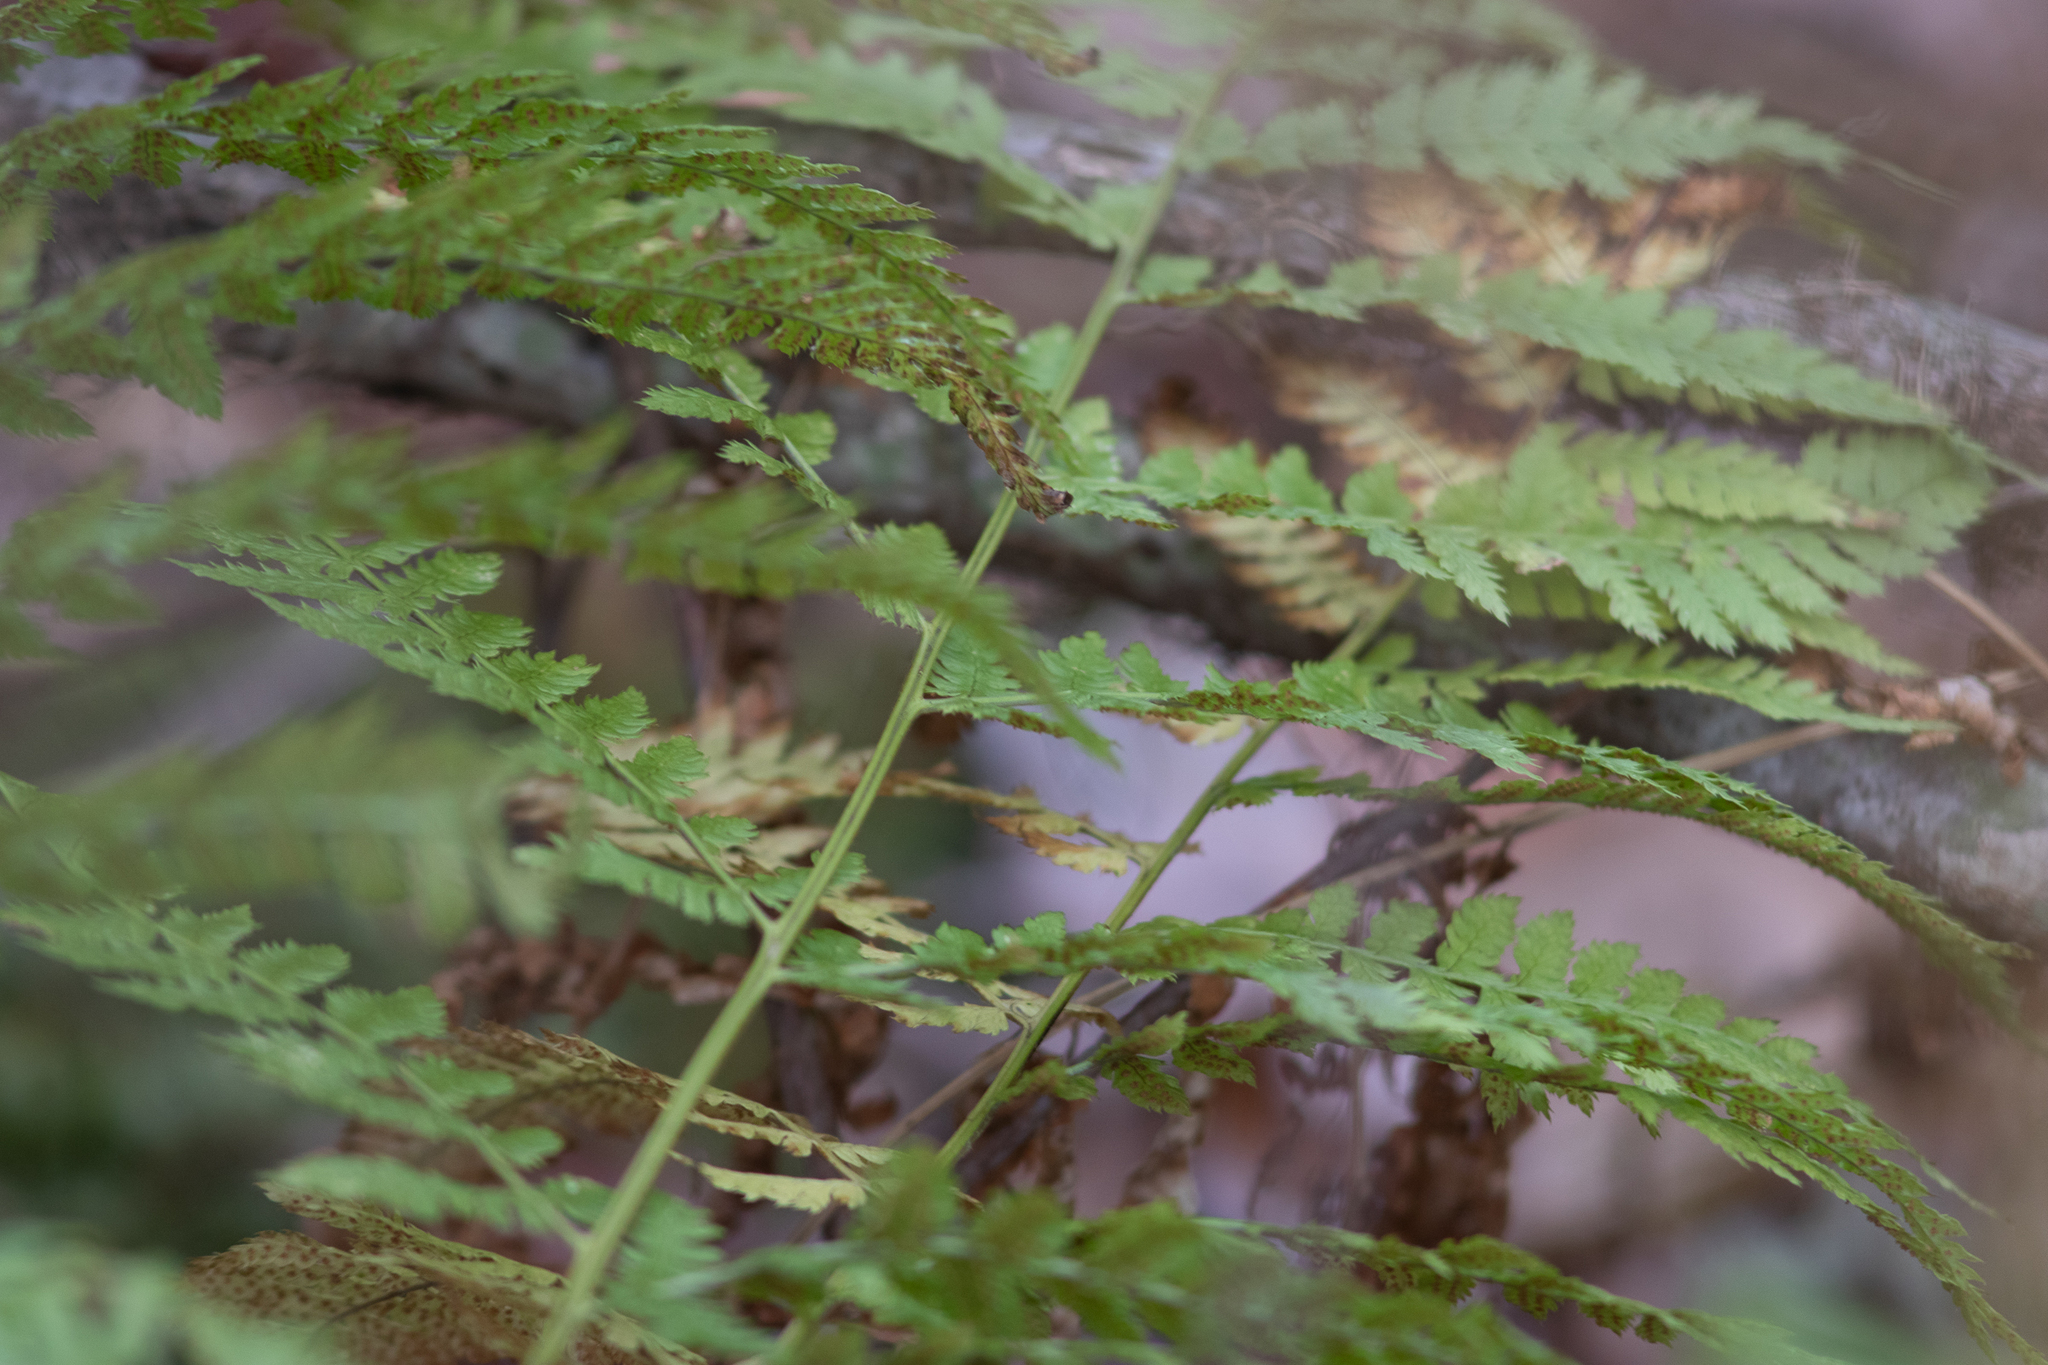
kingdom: Plantae
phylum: Tracheophyta
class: Polypodiopsida
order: Polypodiales
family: Dryopteridaceae
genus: Dryopteris
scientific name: Dryopteris intermedia
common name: Evergreen wood fern
